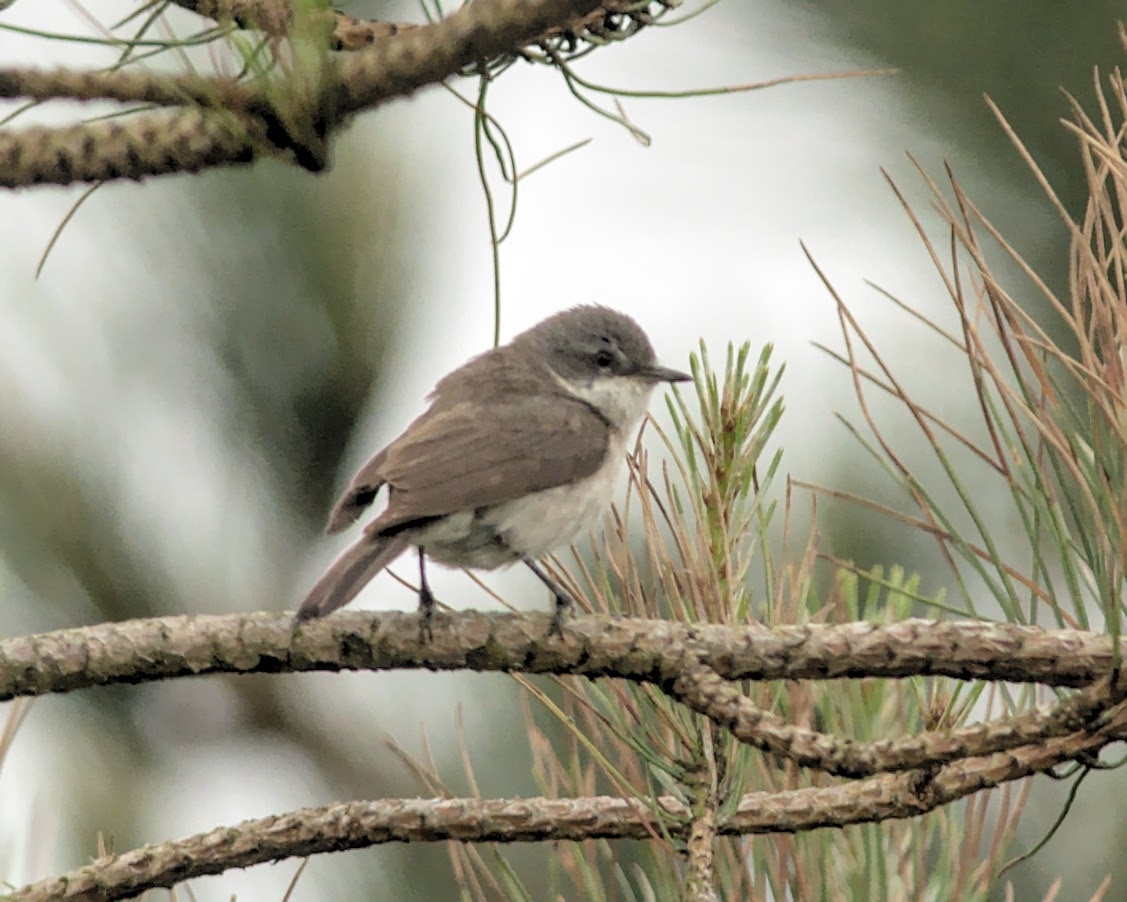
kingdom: Animalia
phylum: Chordata
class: Aves
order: Passeriformes
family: Sylviidae
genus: Sylvia
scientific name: Sylvia curruca
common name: Lesser whitethroat
